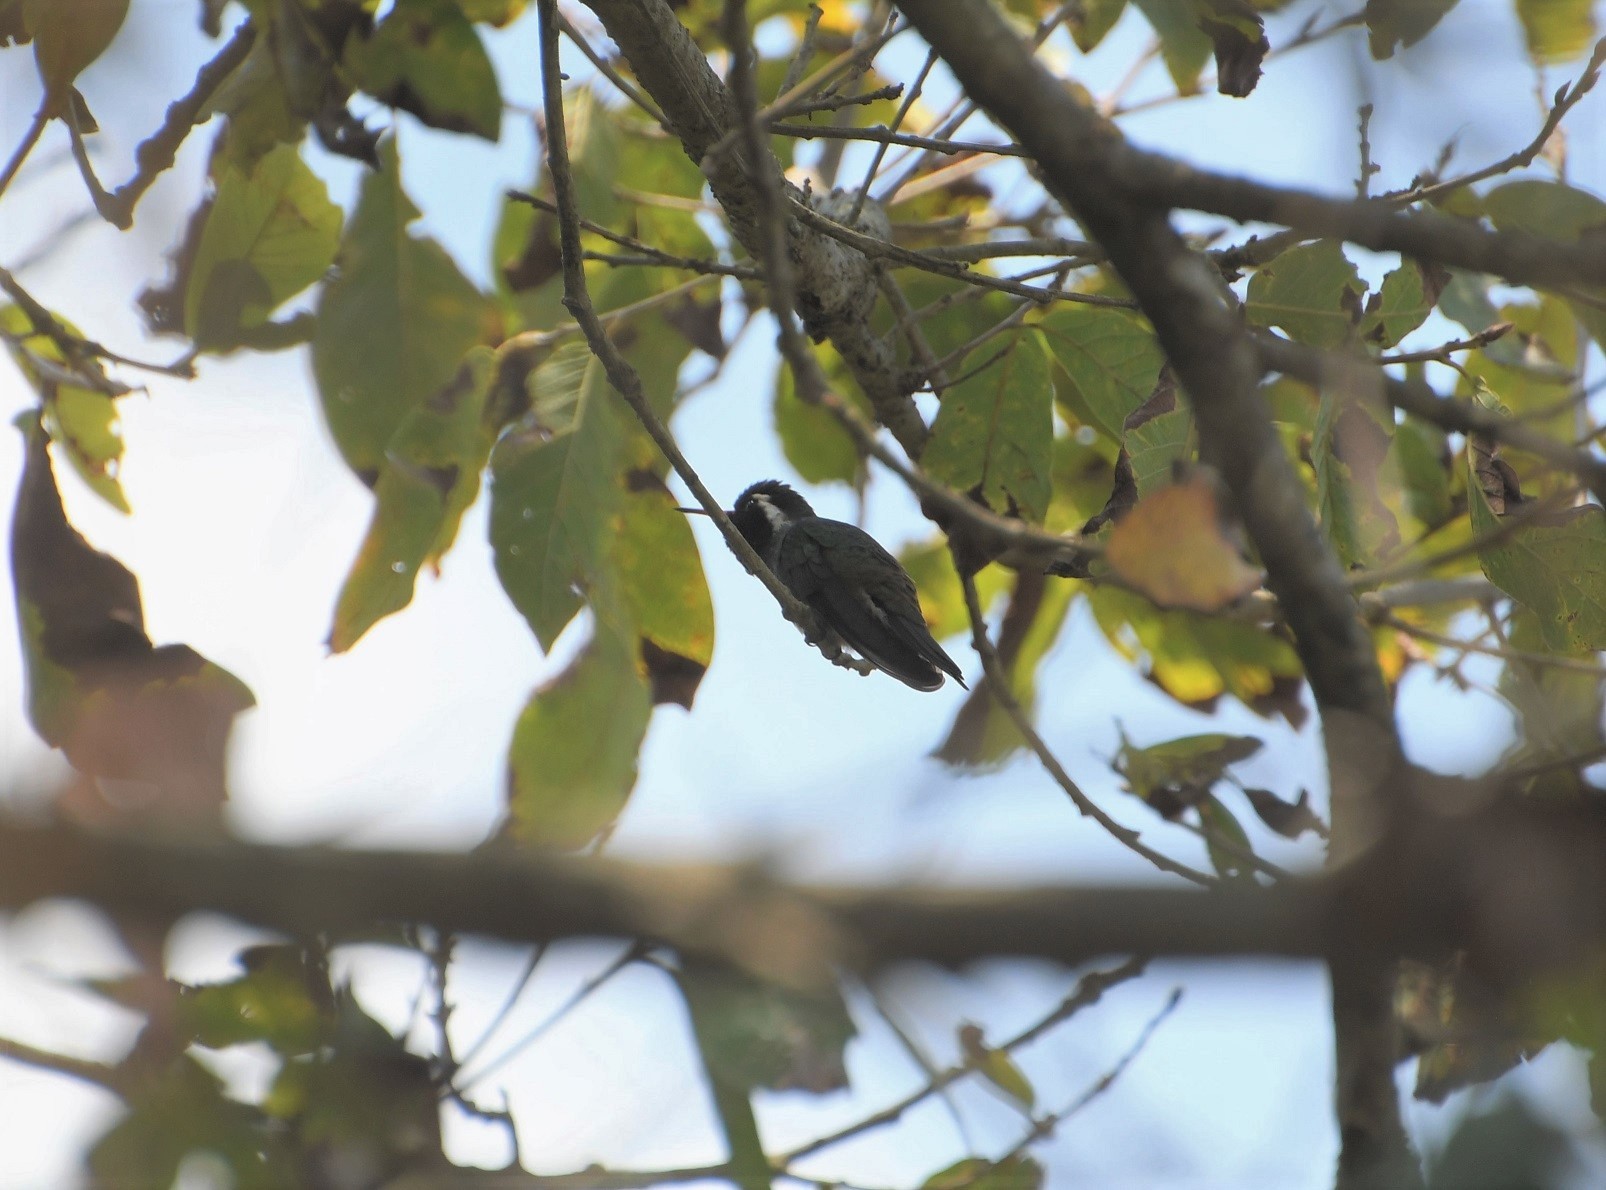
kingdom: Animalia
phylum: Chordata
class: Aves
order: Apodiformes
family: Trochilidae
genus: Basilinna
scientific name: Basilinna leucotis
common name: White-eared hummingbird
